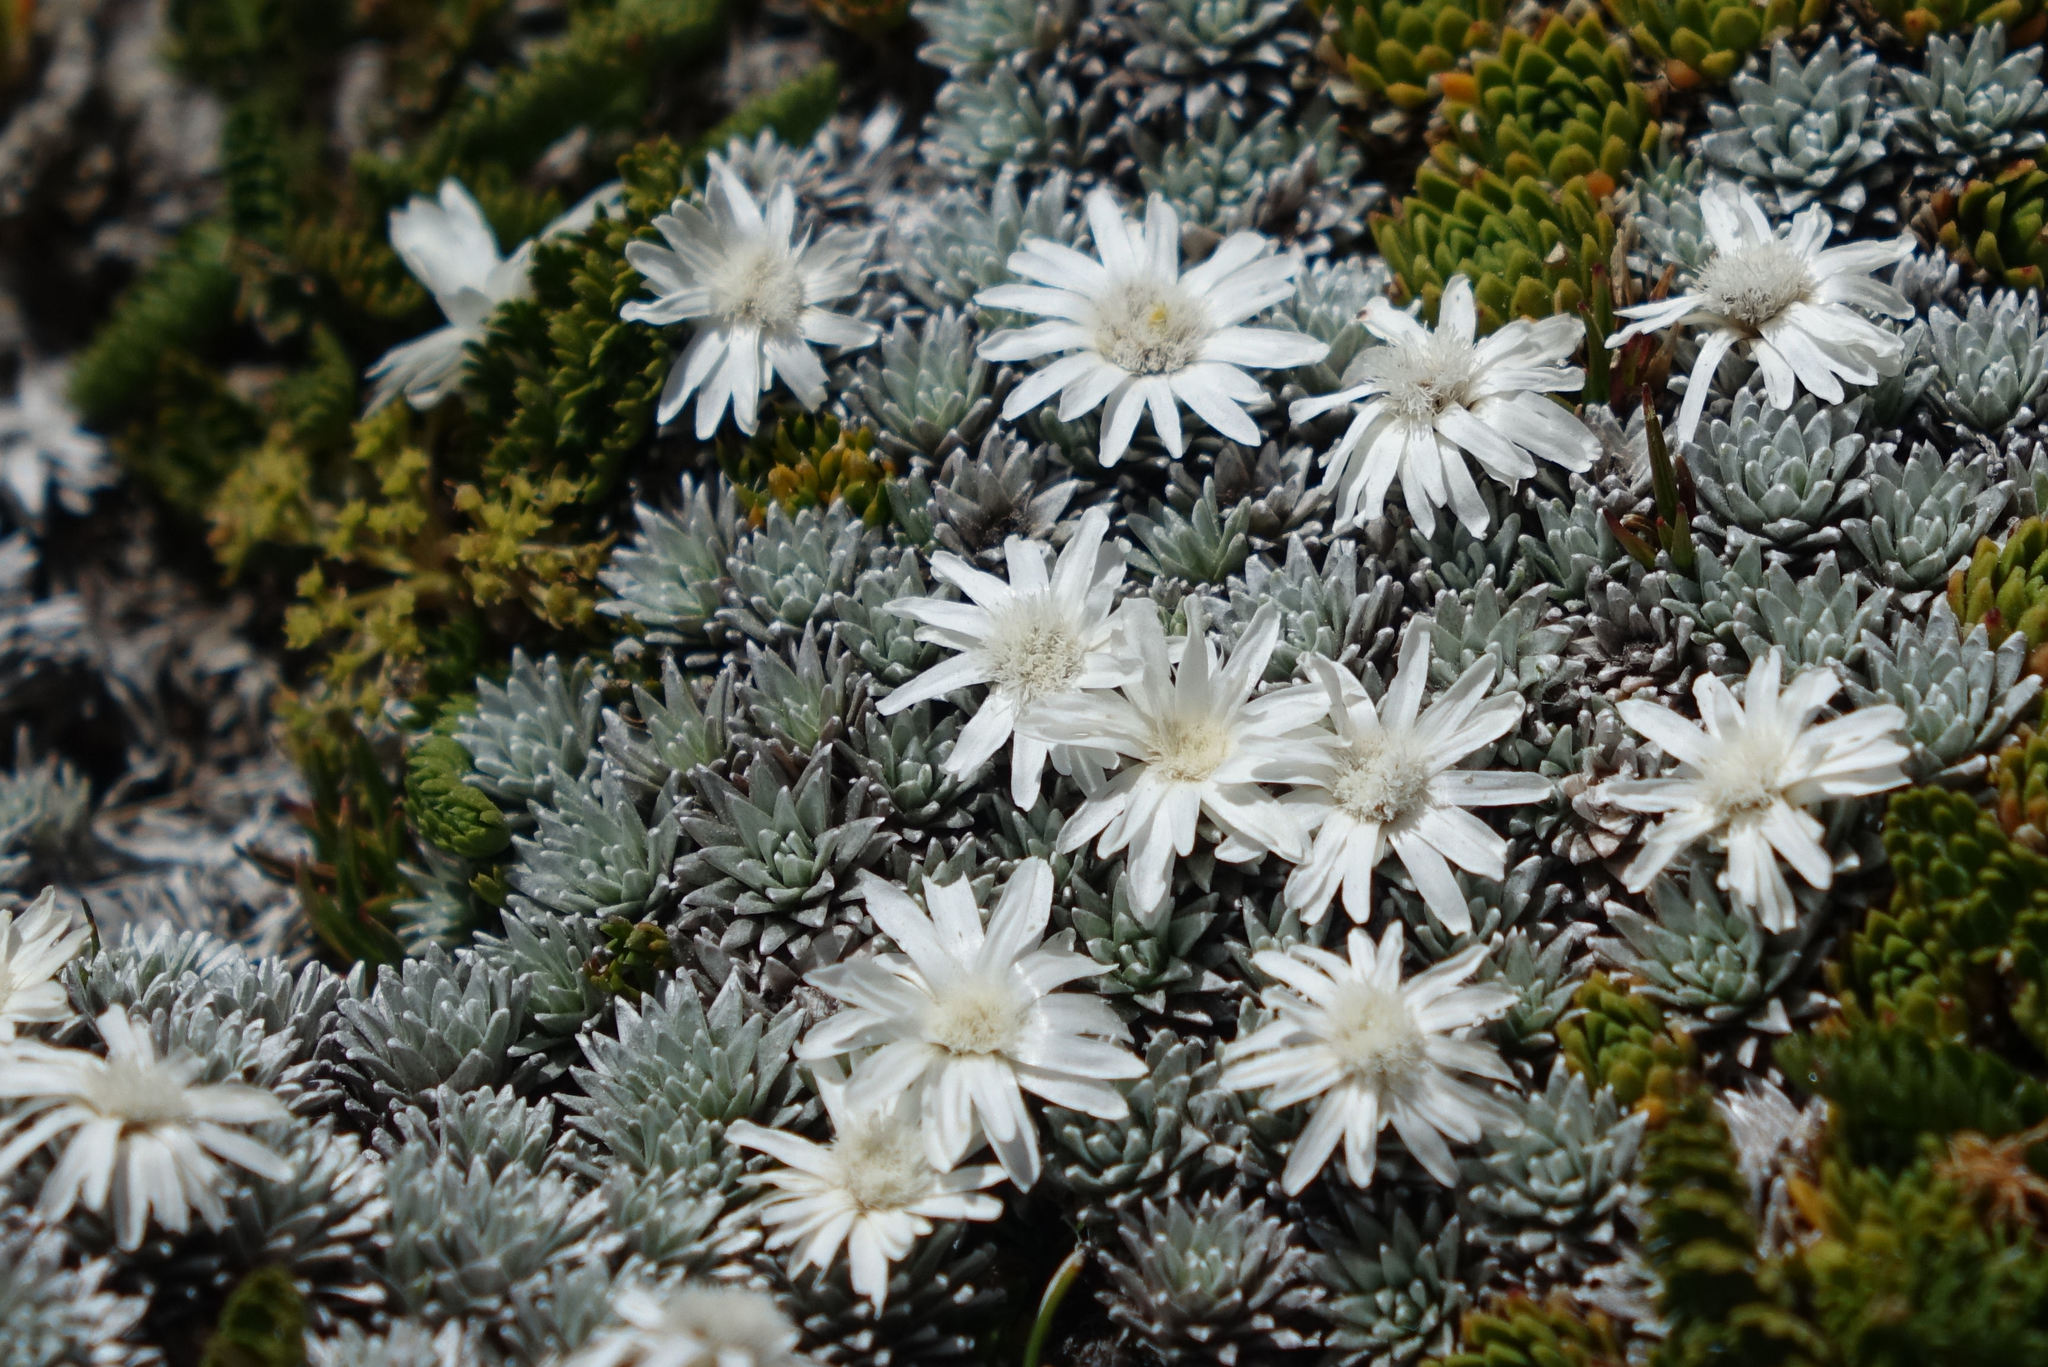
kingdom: Plantae
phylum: Tracheophyta
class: Magnoliopsida
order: Asterales
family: Asteraceae
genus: Raoulia
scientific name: Raoulia grandiflora
